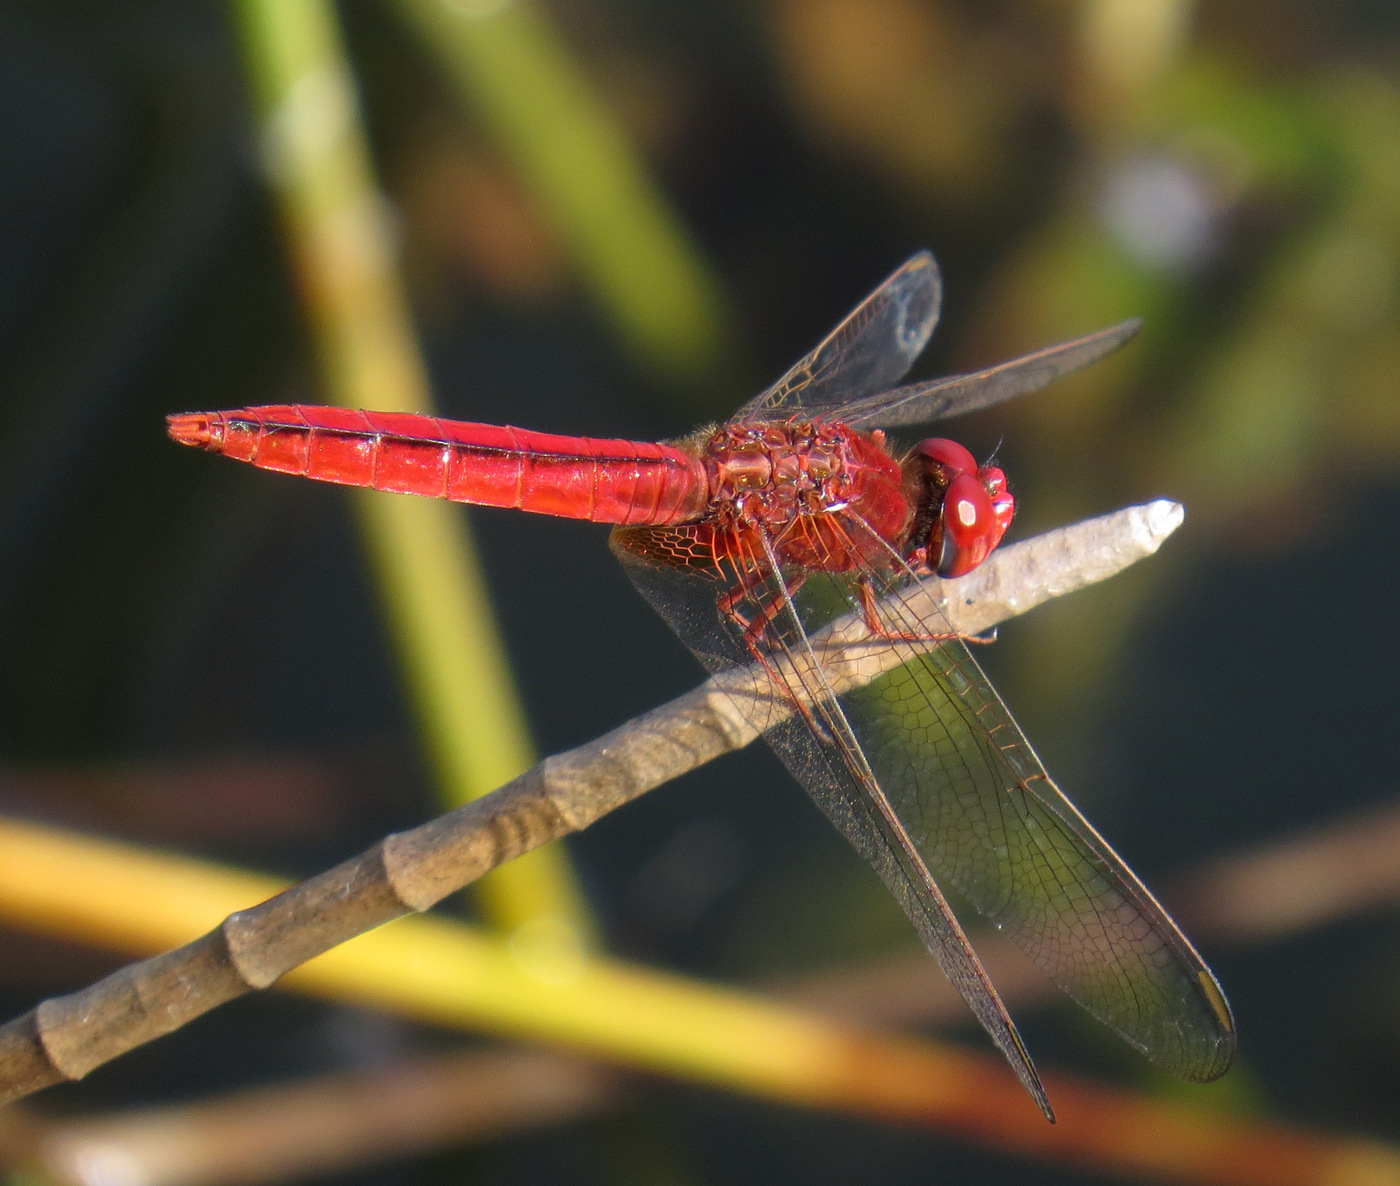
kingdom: Animalia
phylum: Arthropoda
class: Insecta
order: Odonata
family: Libellulidae
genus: Crocothemis
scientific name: Crocothemis servilia
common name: Scarlet skimmer
